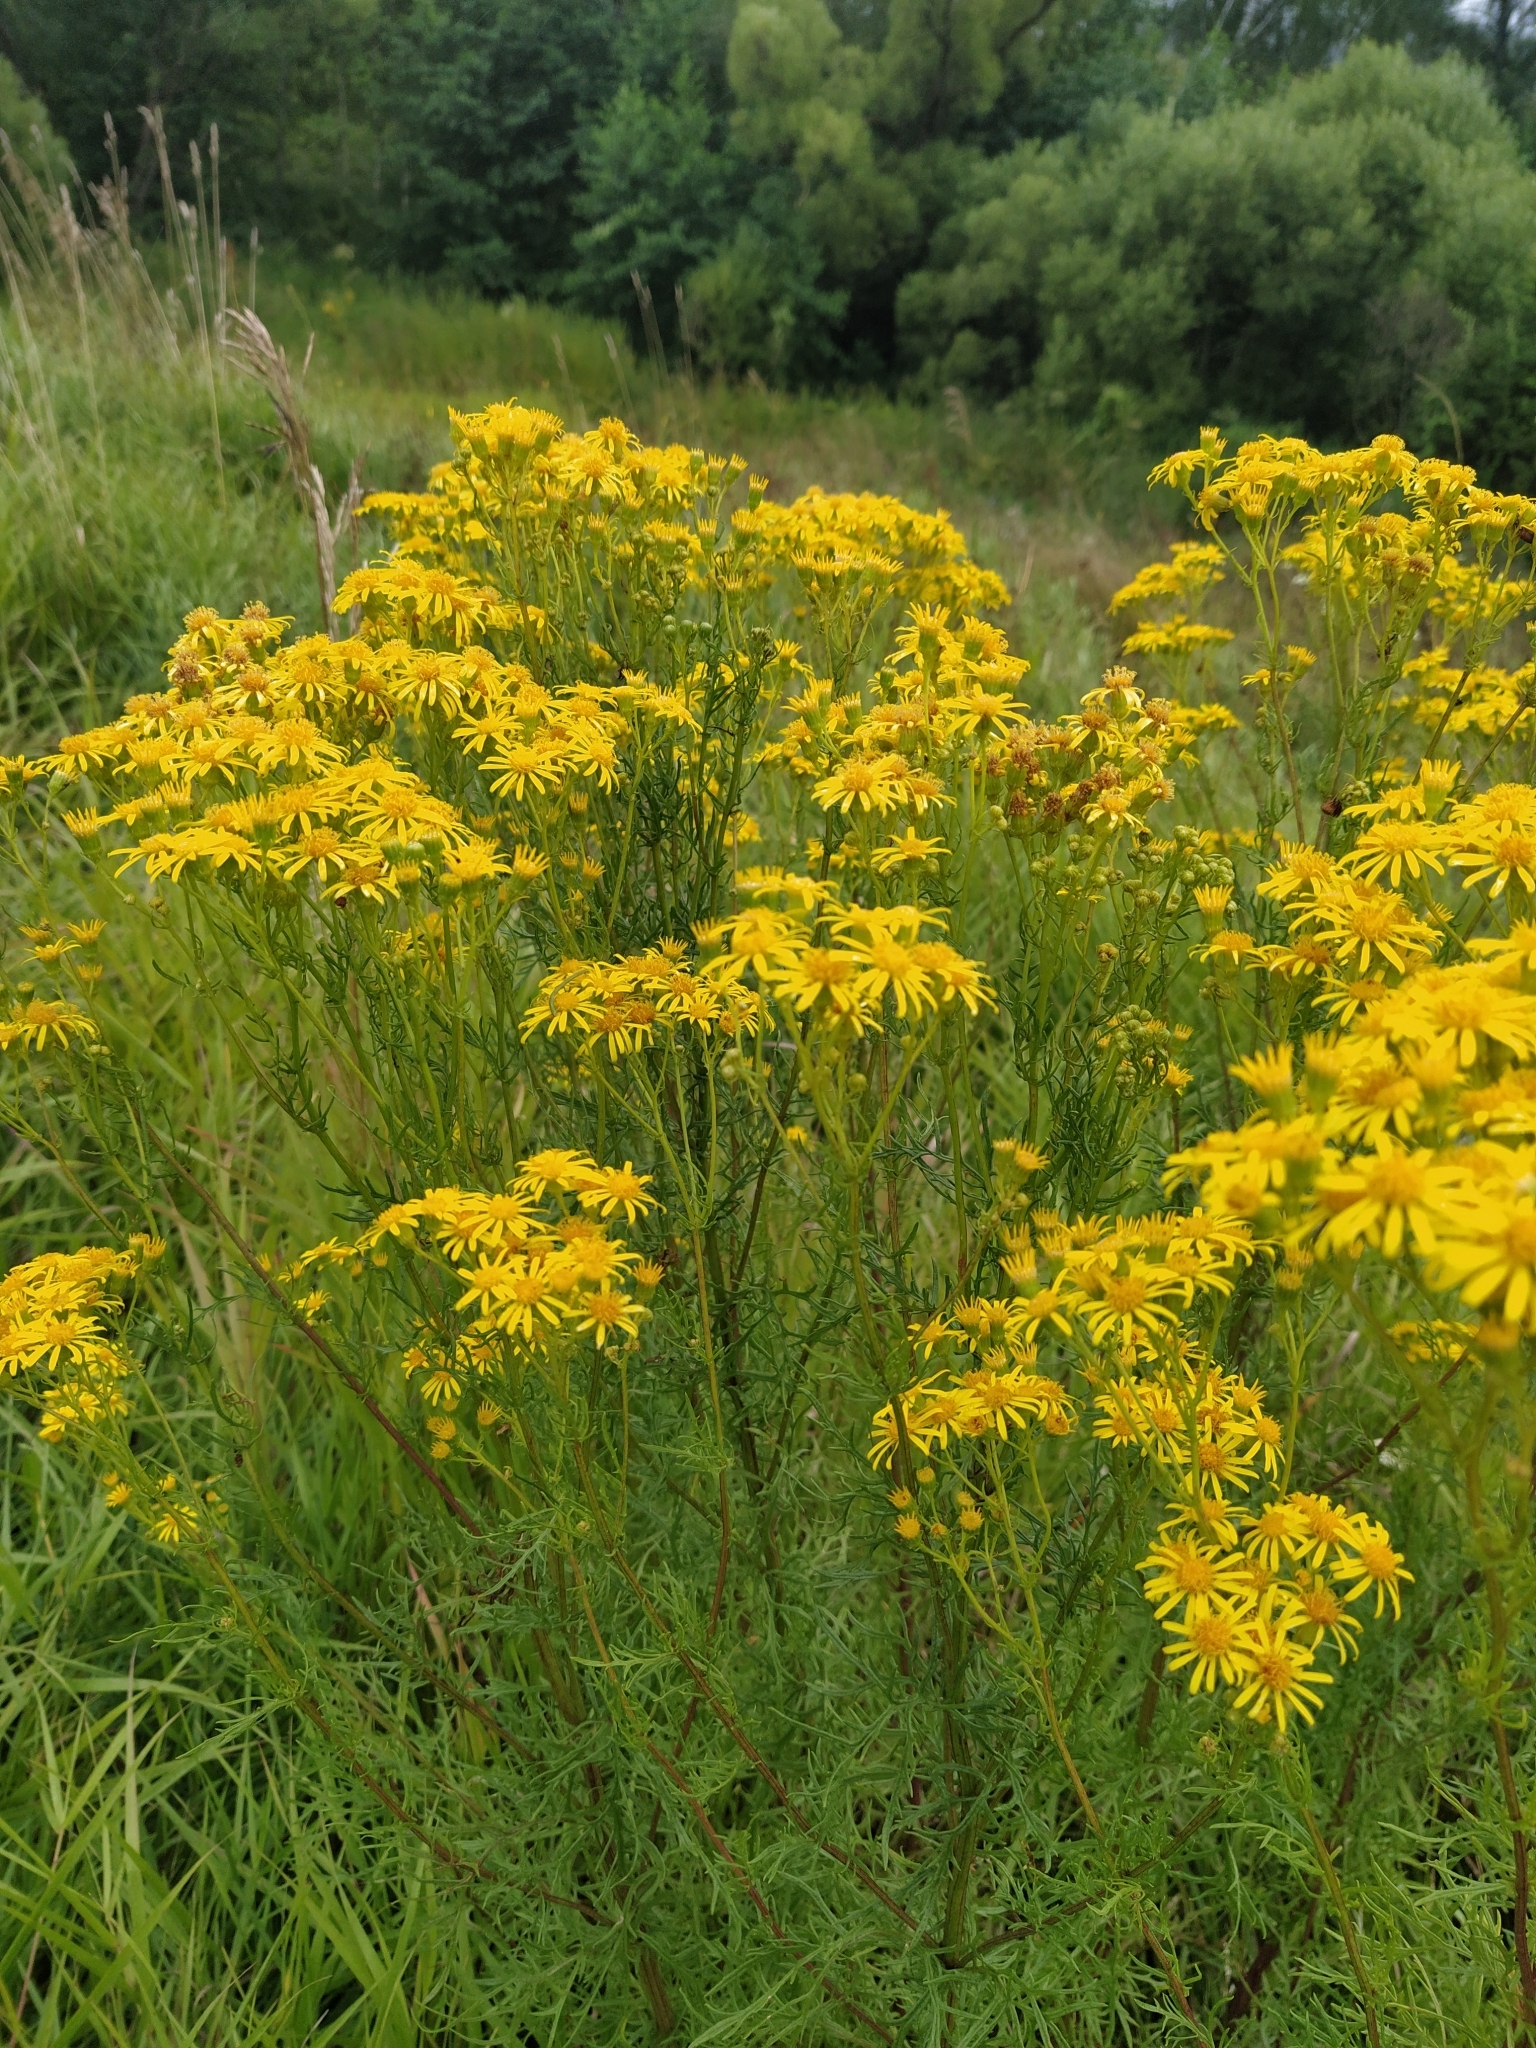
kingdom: Plantae
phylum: Tracheophyta
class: Magnoliopsida
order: Asterales
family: Asteraceae
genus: Jacobaea
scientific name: Jacobaea vulgaris
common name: Stinking willie
